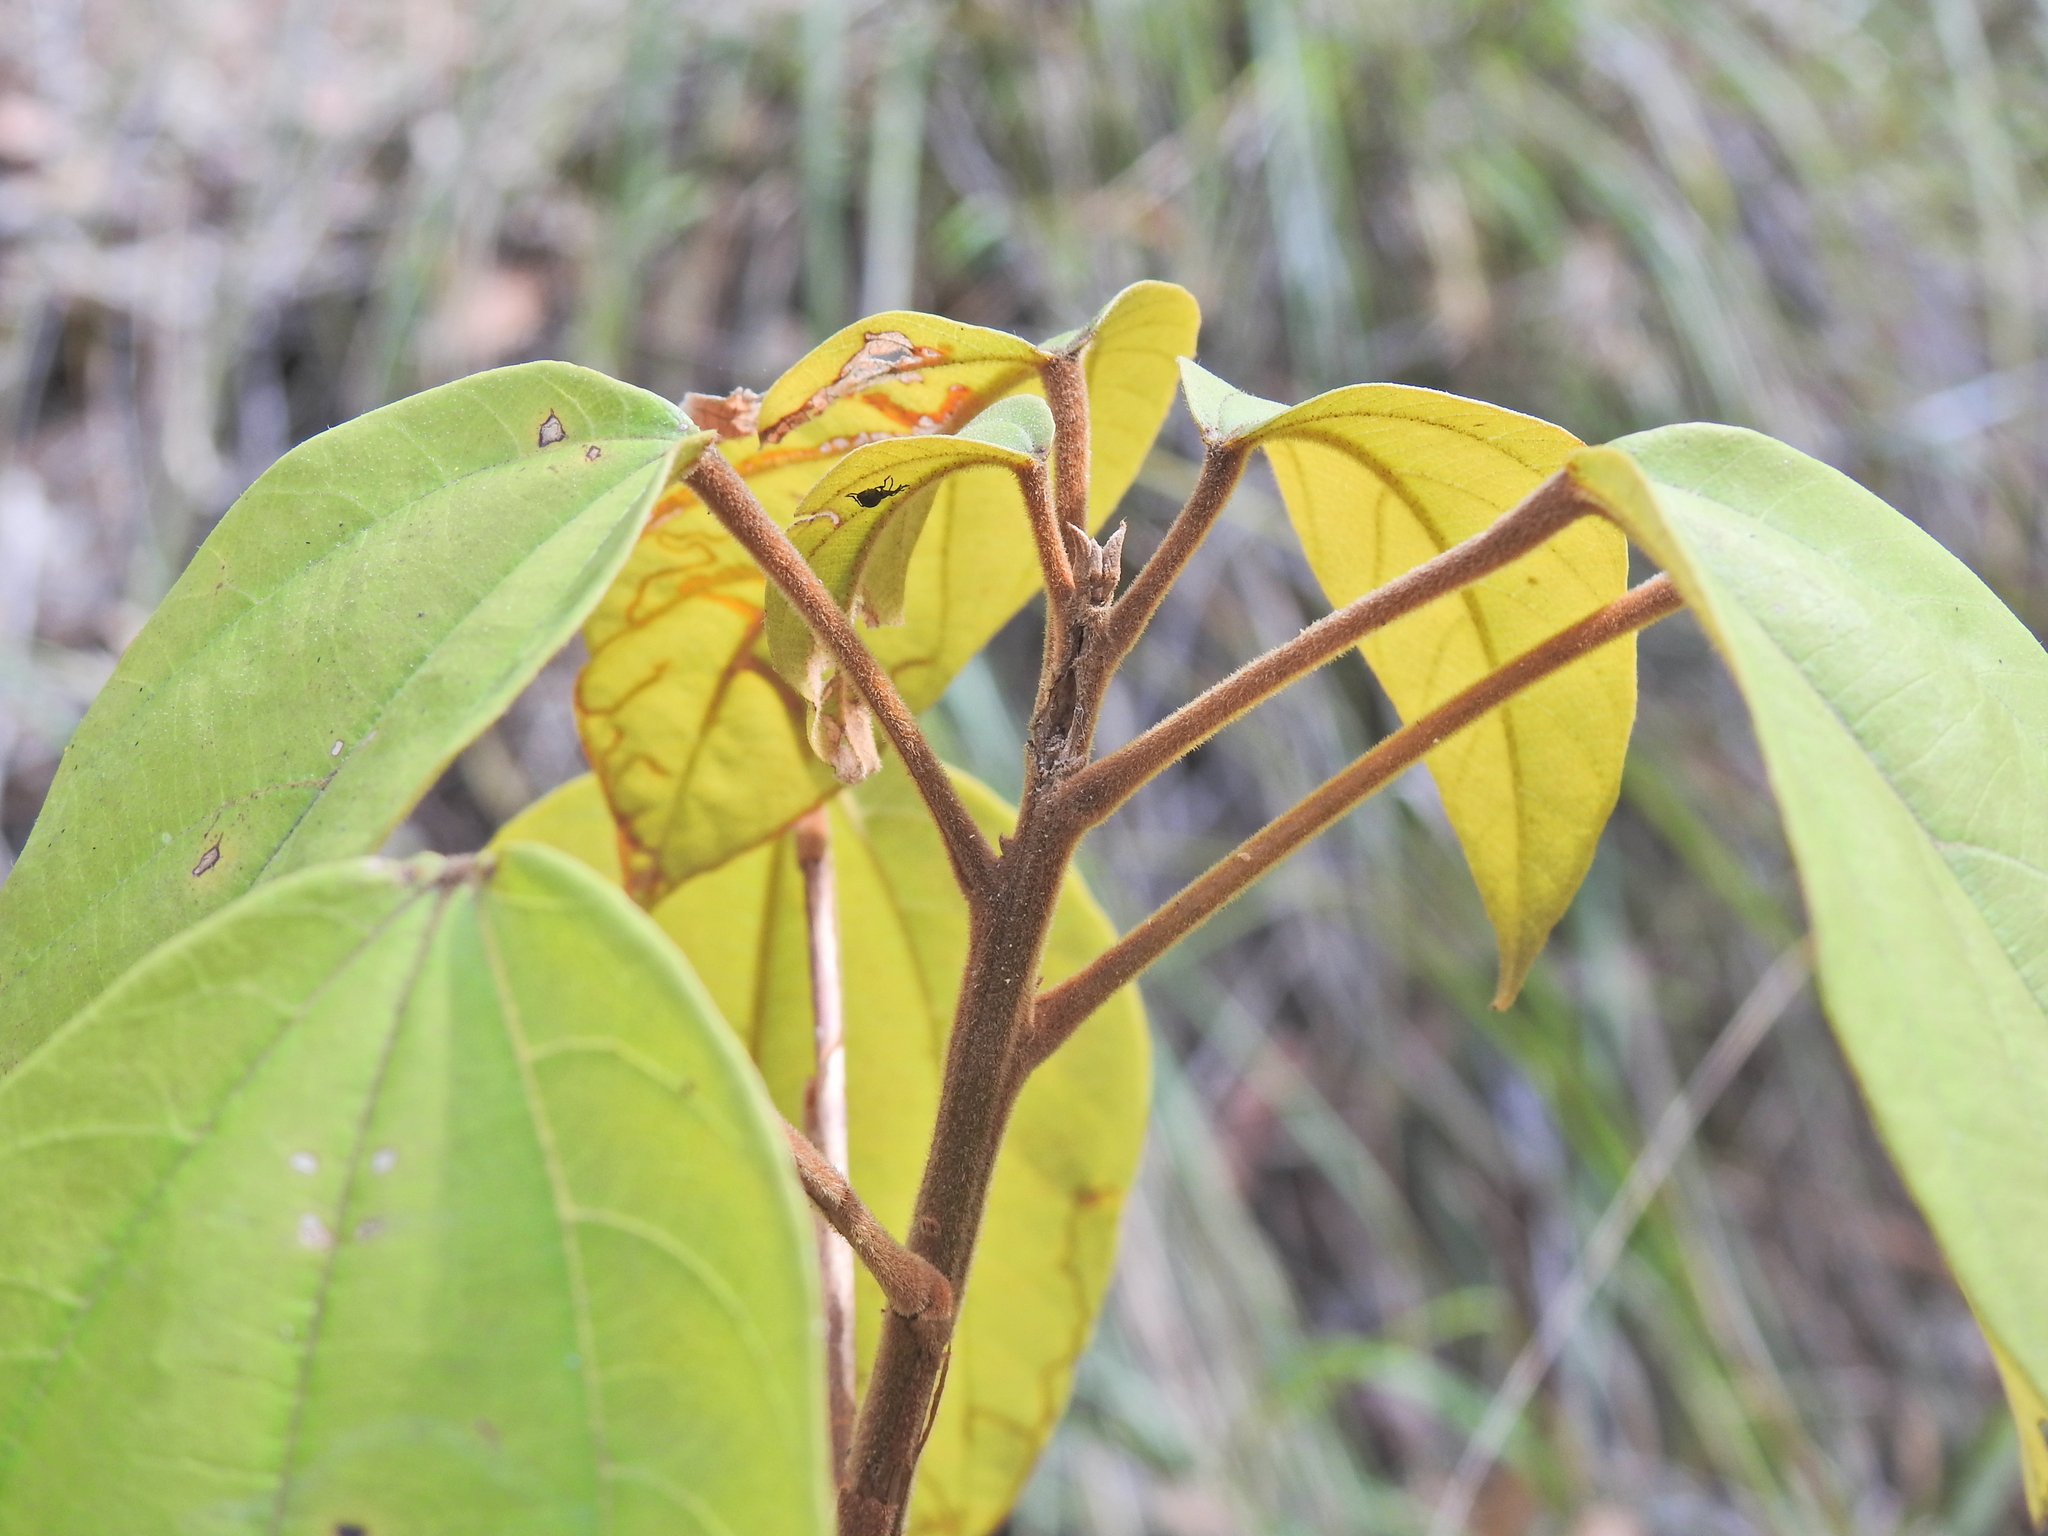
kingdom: Plantae
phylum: Tracheophyta
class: Magnoliopsida
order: Malpighiales
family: Euphorbiaceae
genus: Mallotus
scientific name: Mallotus philippensis
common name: Kamala tree
